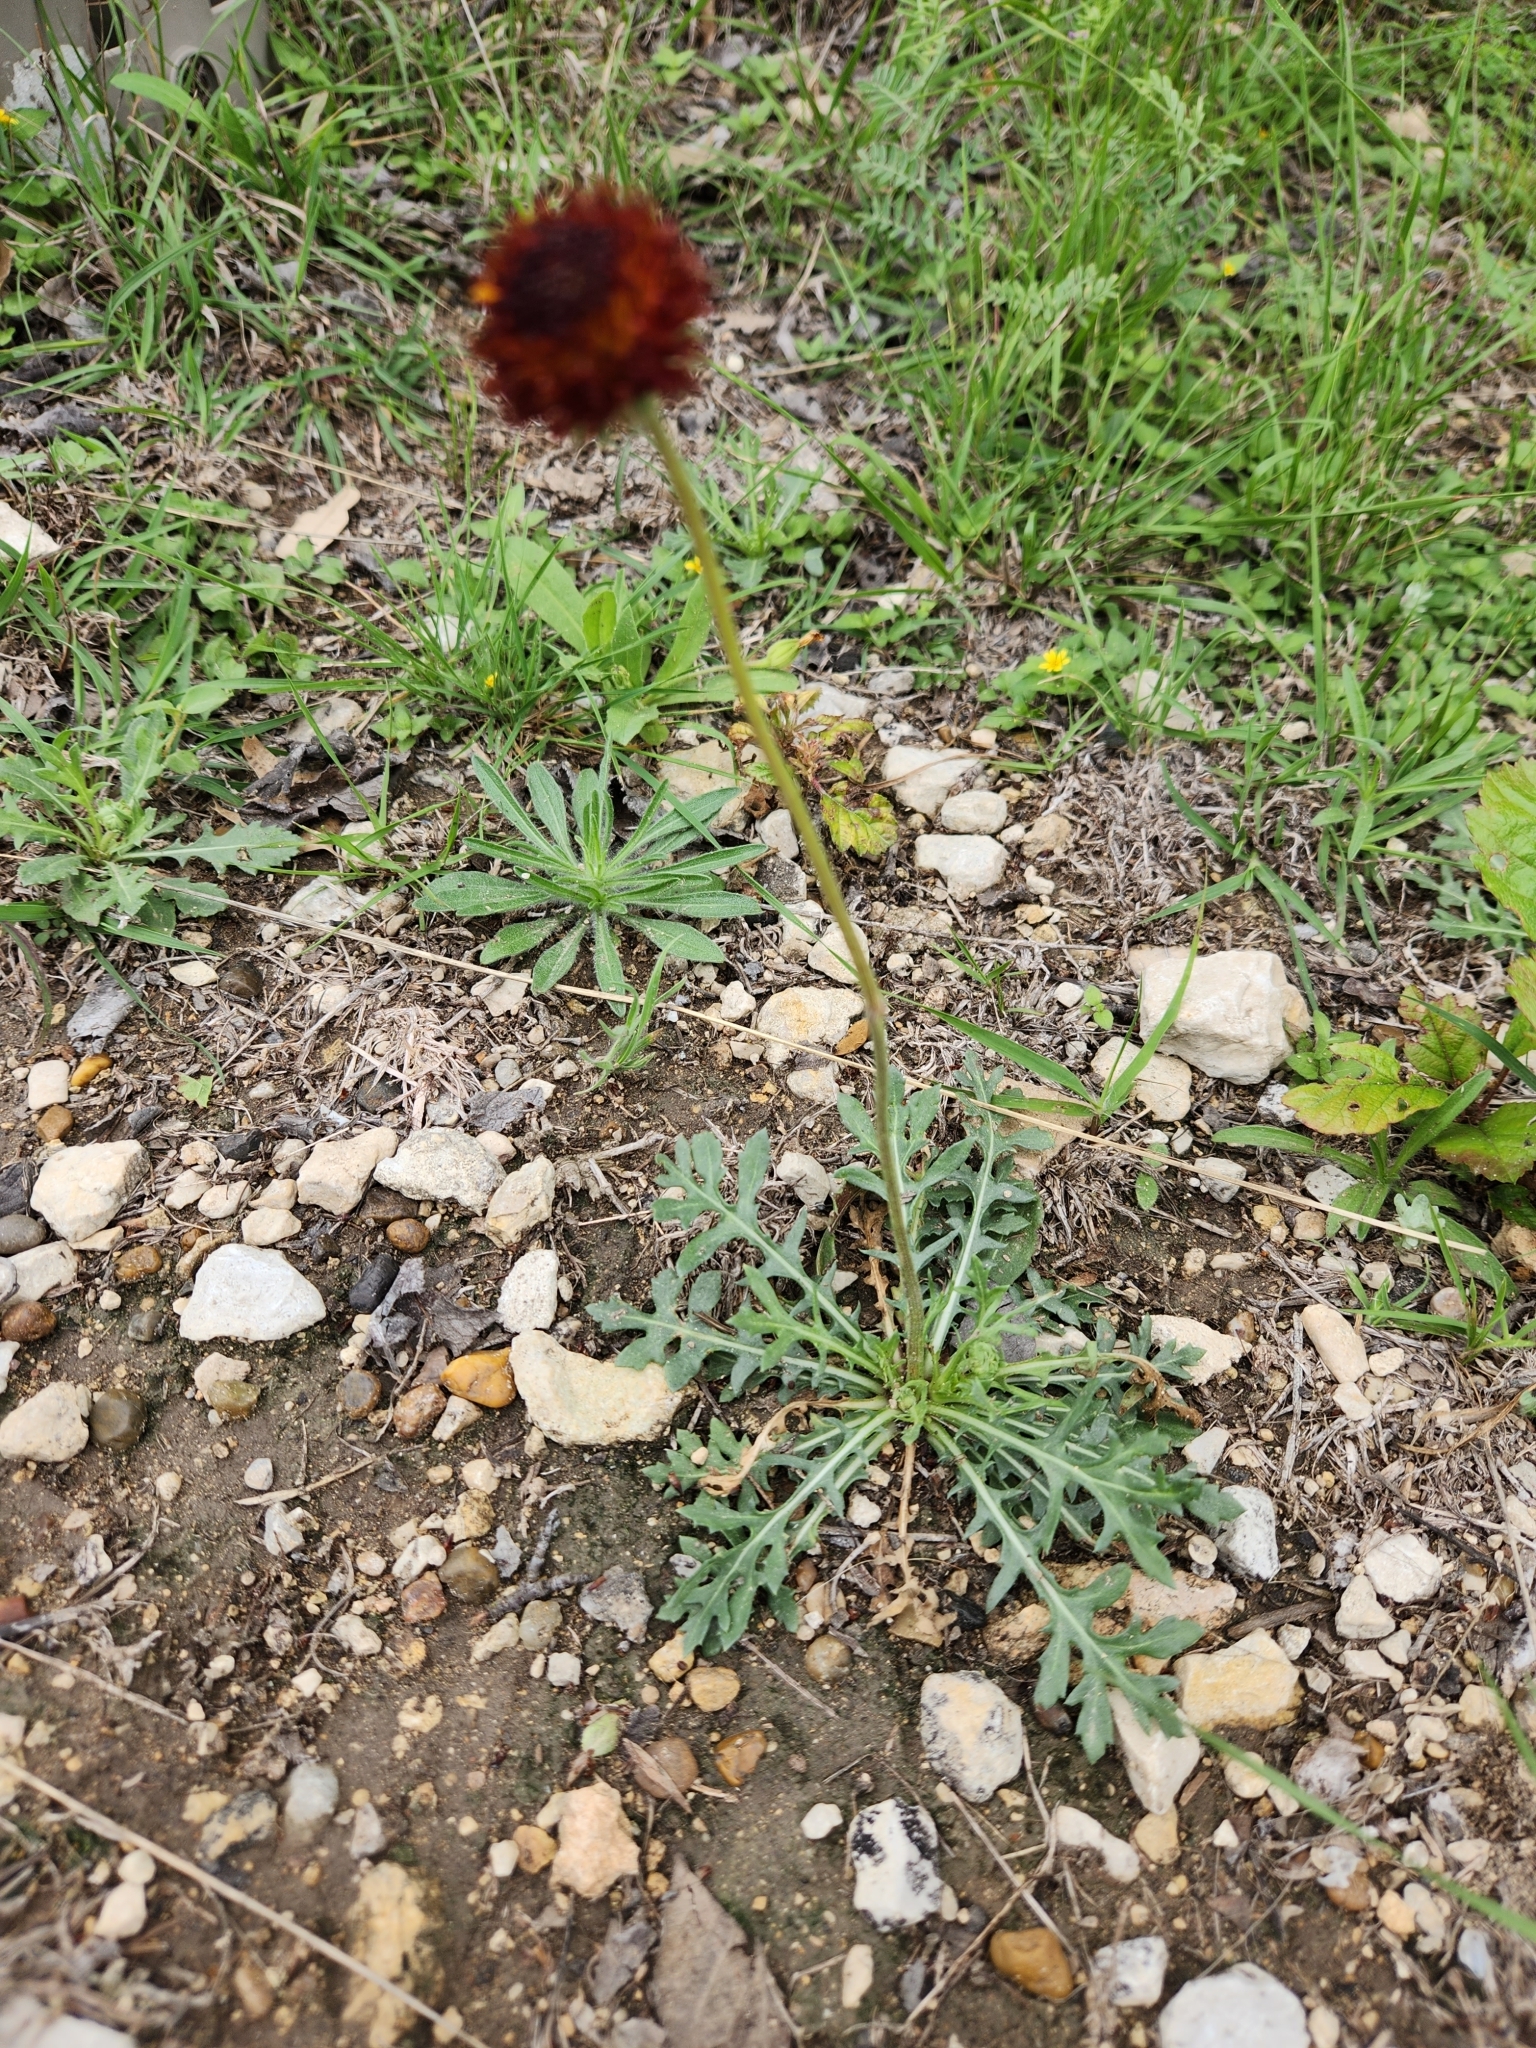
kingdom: Plantae
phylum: Tracheophyta
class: Magnoliopsida
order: Asterales
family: Asteraceae
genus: Gaillardia
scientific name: Gaillardia suavis
